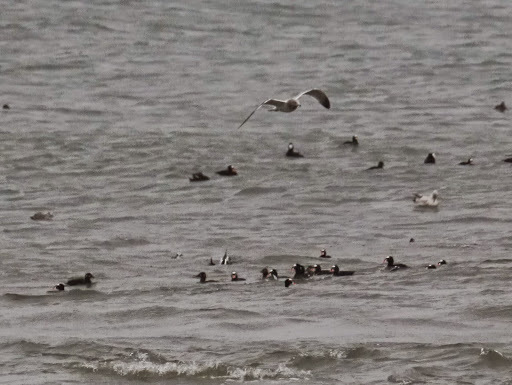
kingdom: Animalia
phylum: Chordata
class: Aves
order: Anseriformes
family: Anatidae
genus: Melanitta
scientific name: Melanitta perspicillata
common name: Surf scoter
